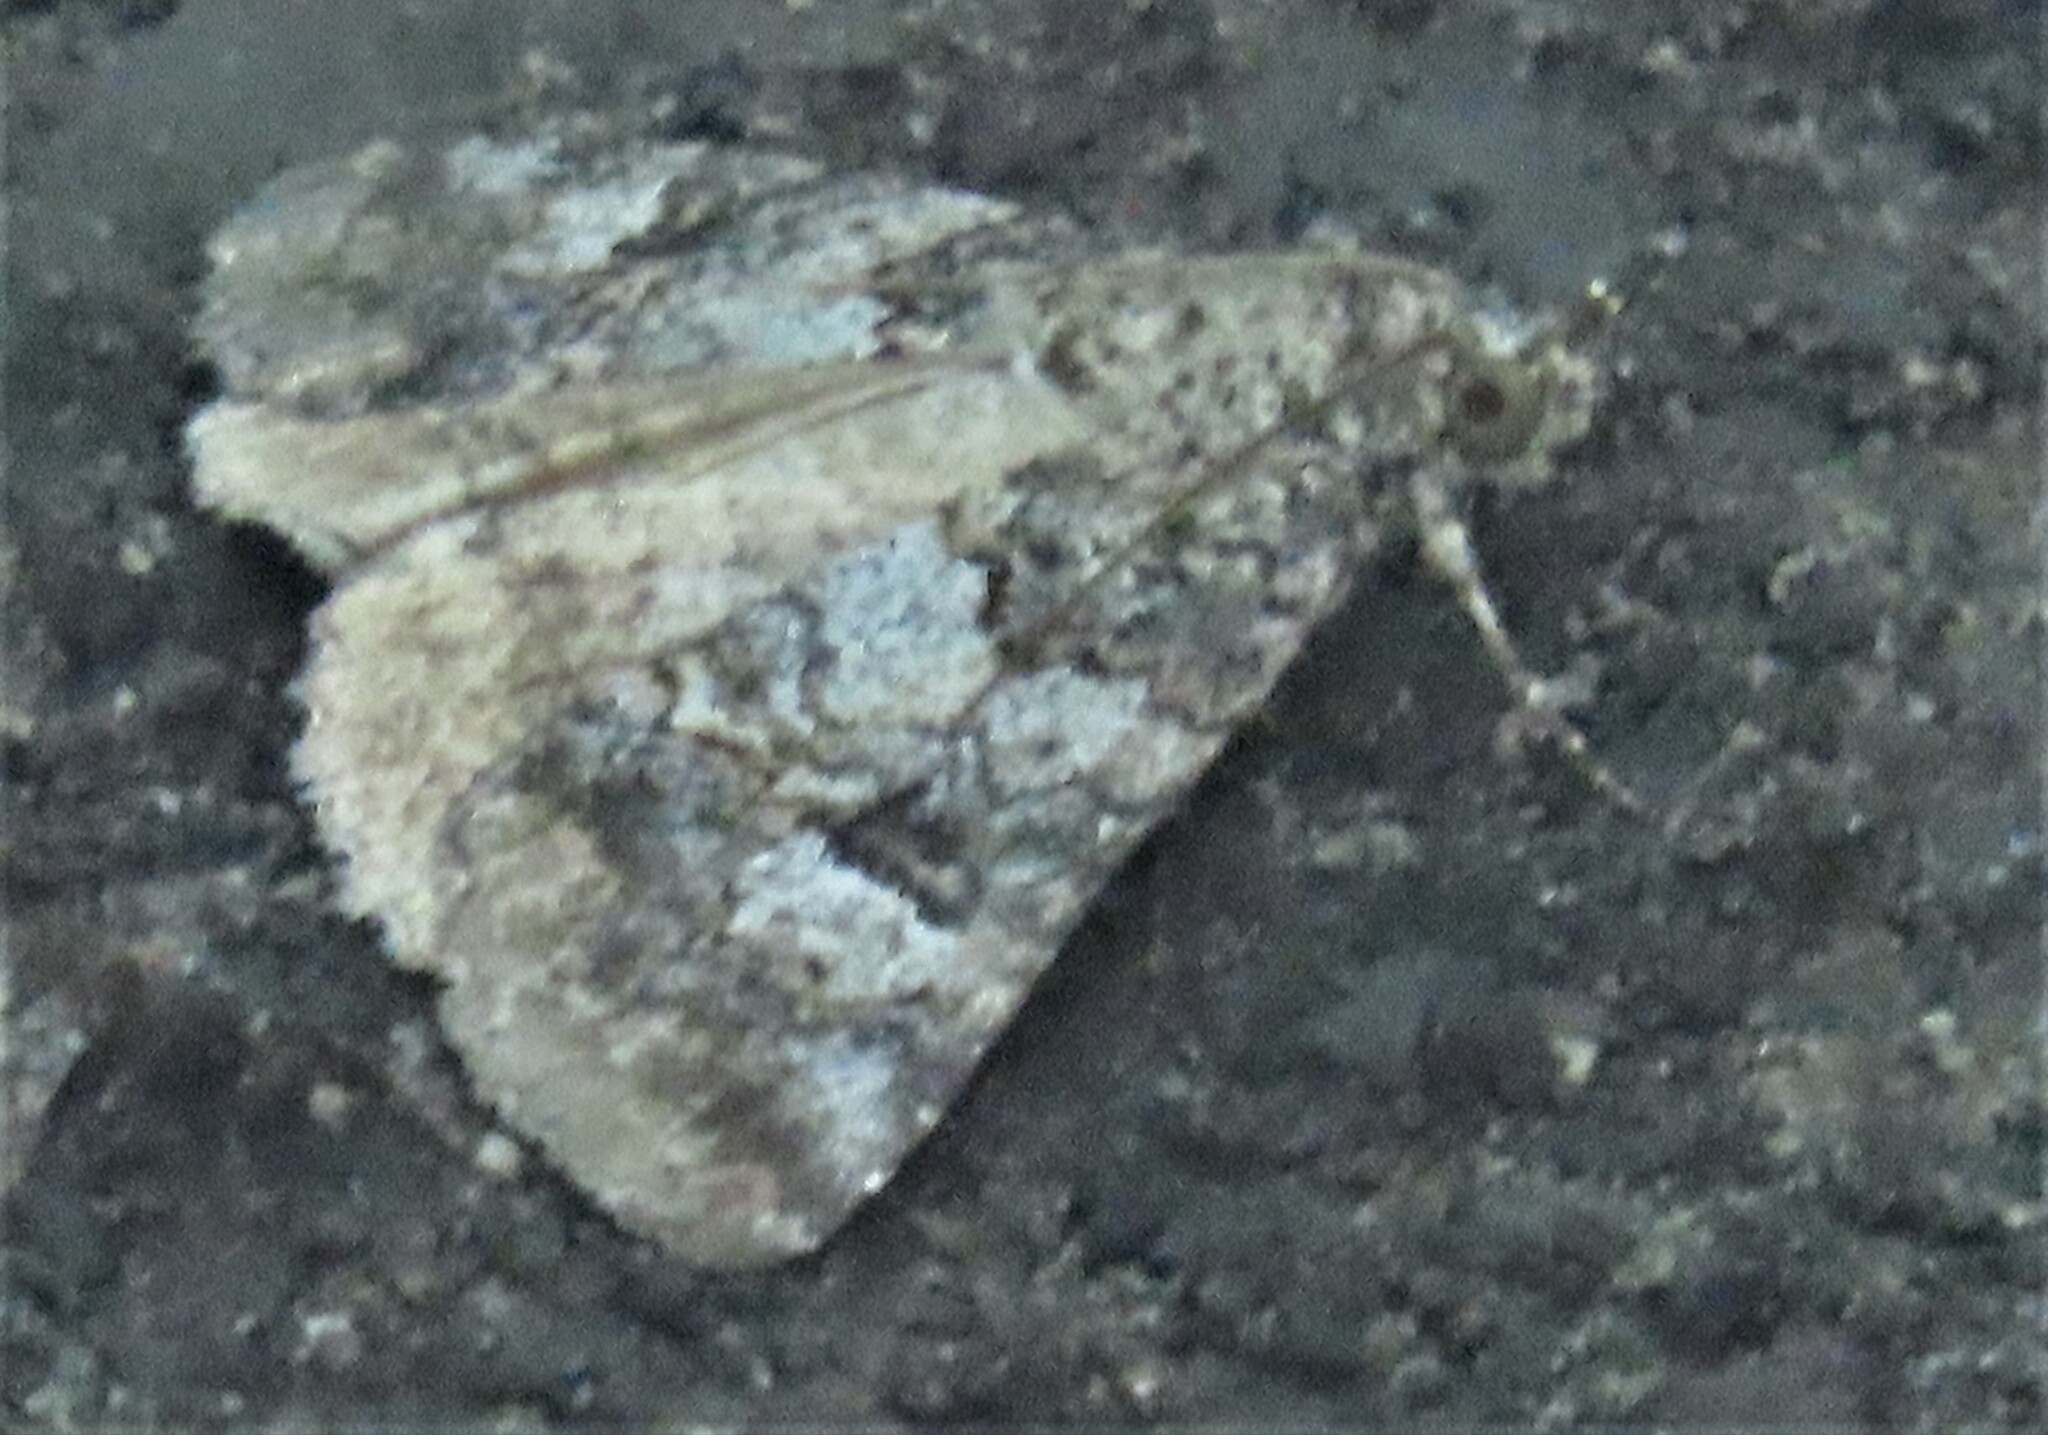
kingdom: Animalia
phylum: Arthropoda
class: Insecta
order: Lepidoptera
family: Erebidae
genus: Eubolina
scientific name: Eubolina impartialis
